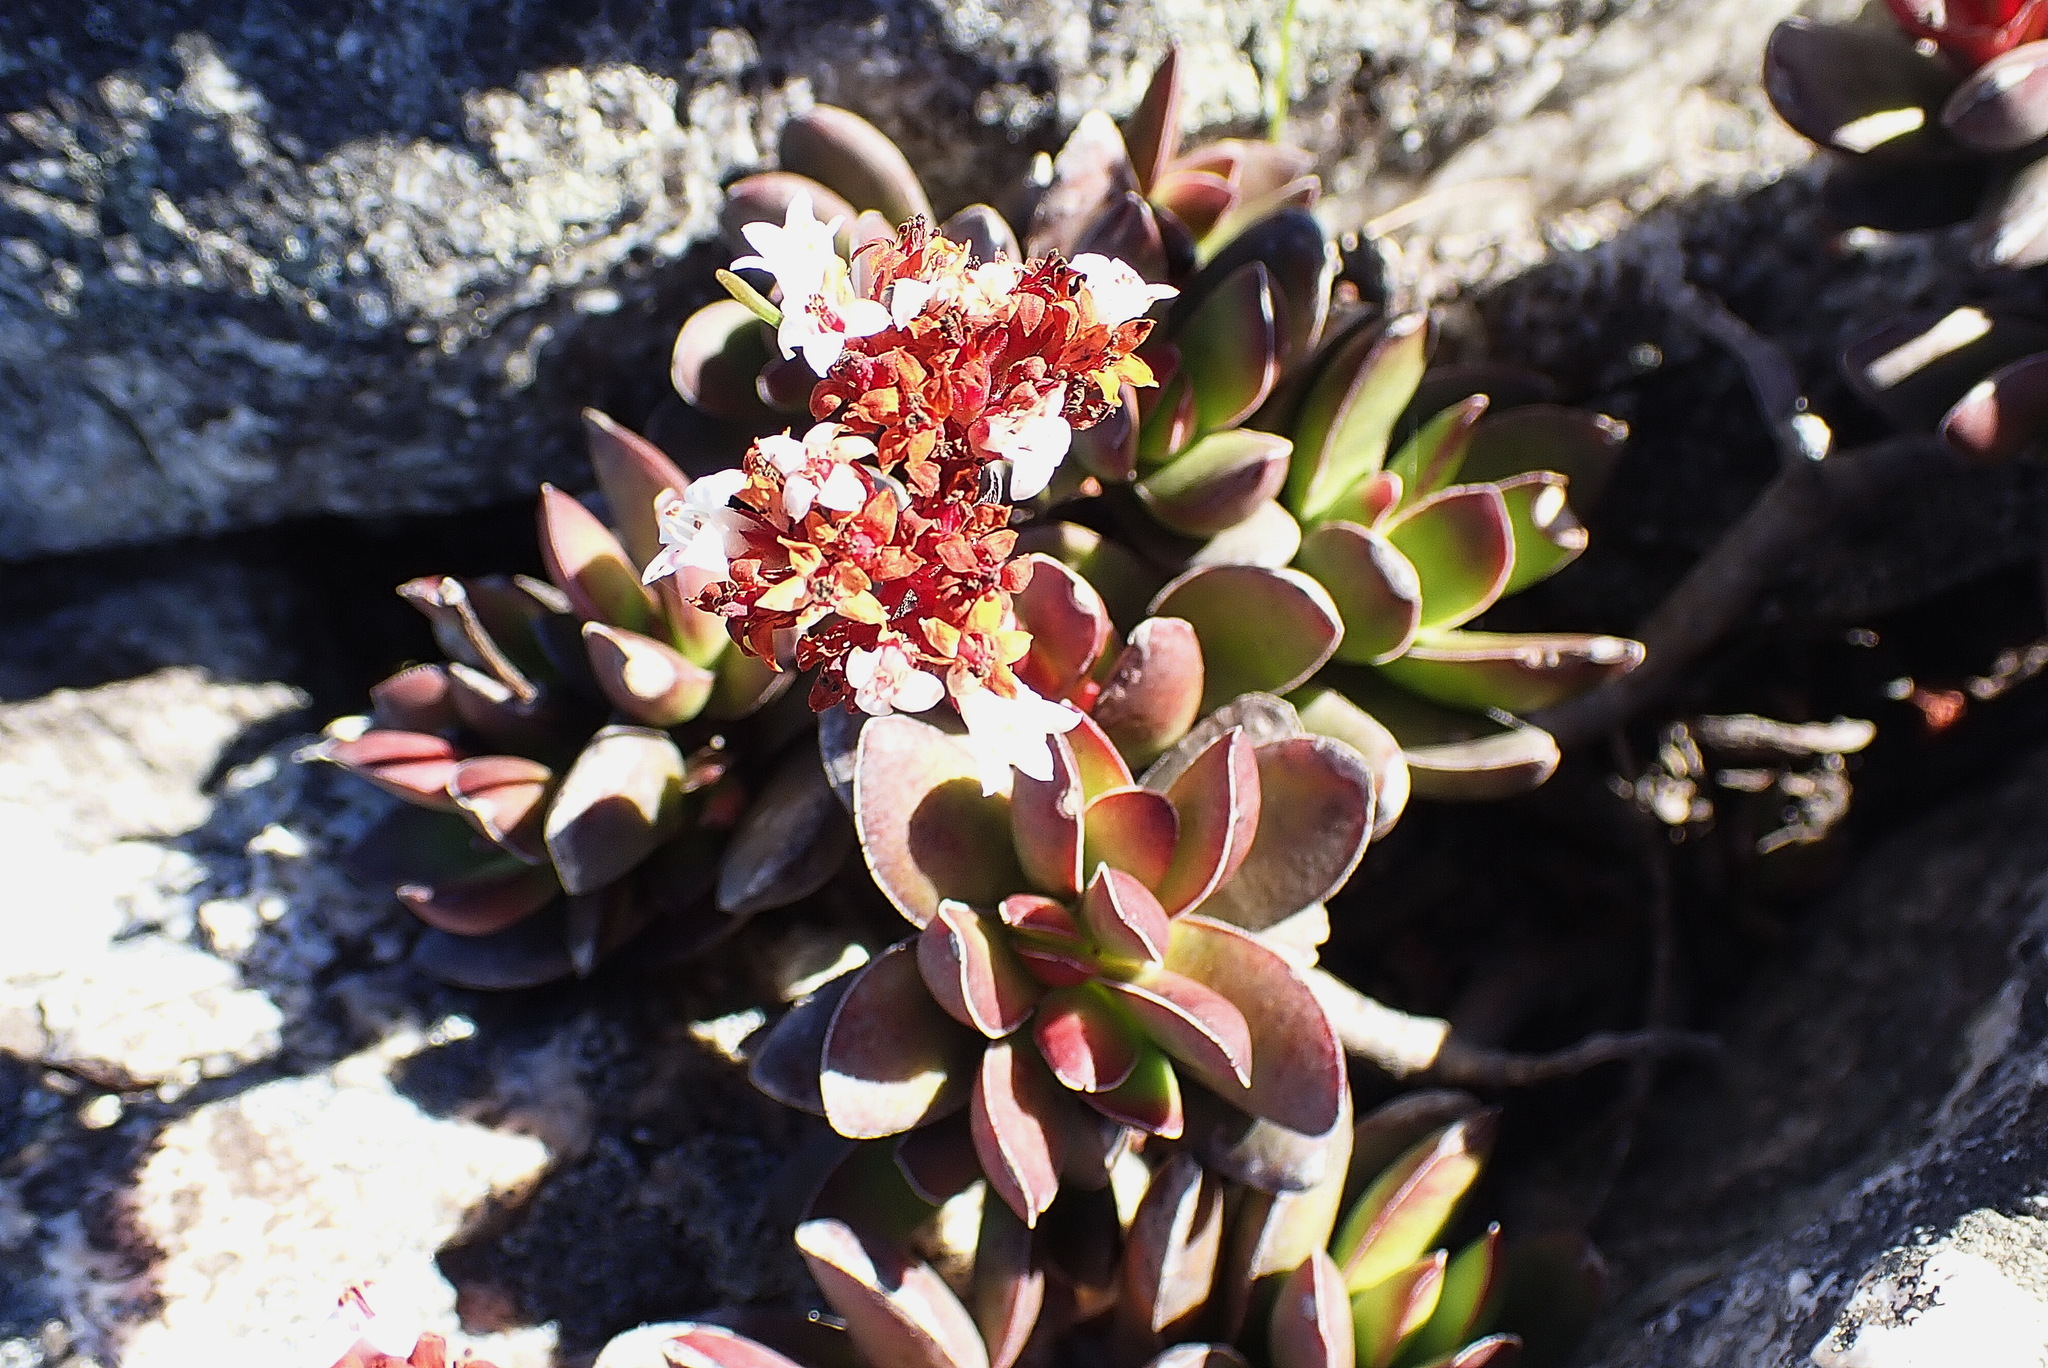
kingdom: Plantae
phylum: Tracheophyta
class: Magnoliopsida
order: Saxifragales
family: Crassulaceae
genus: Crassula
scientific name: Crassula rubricaulis
